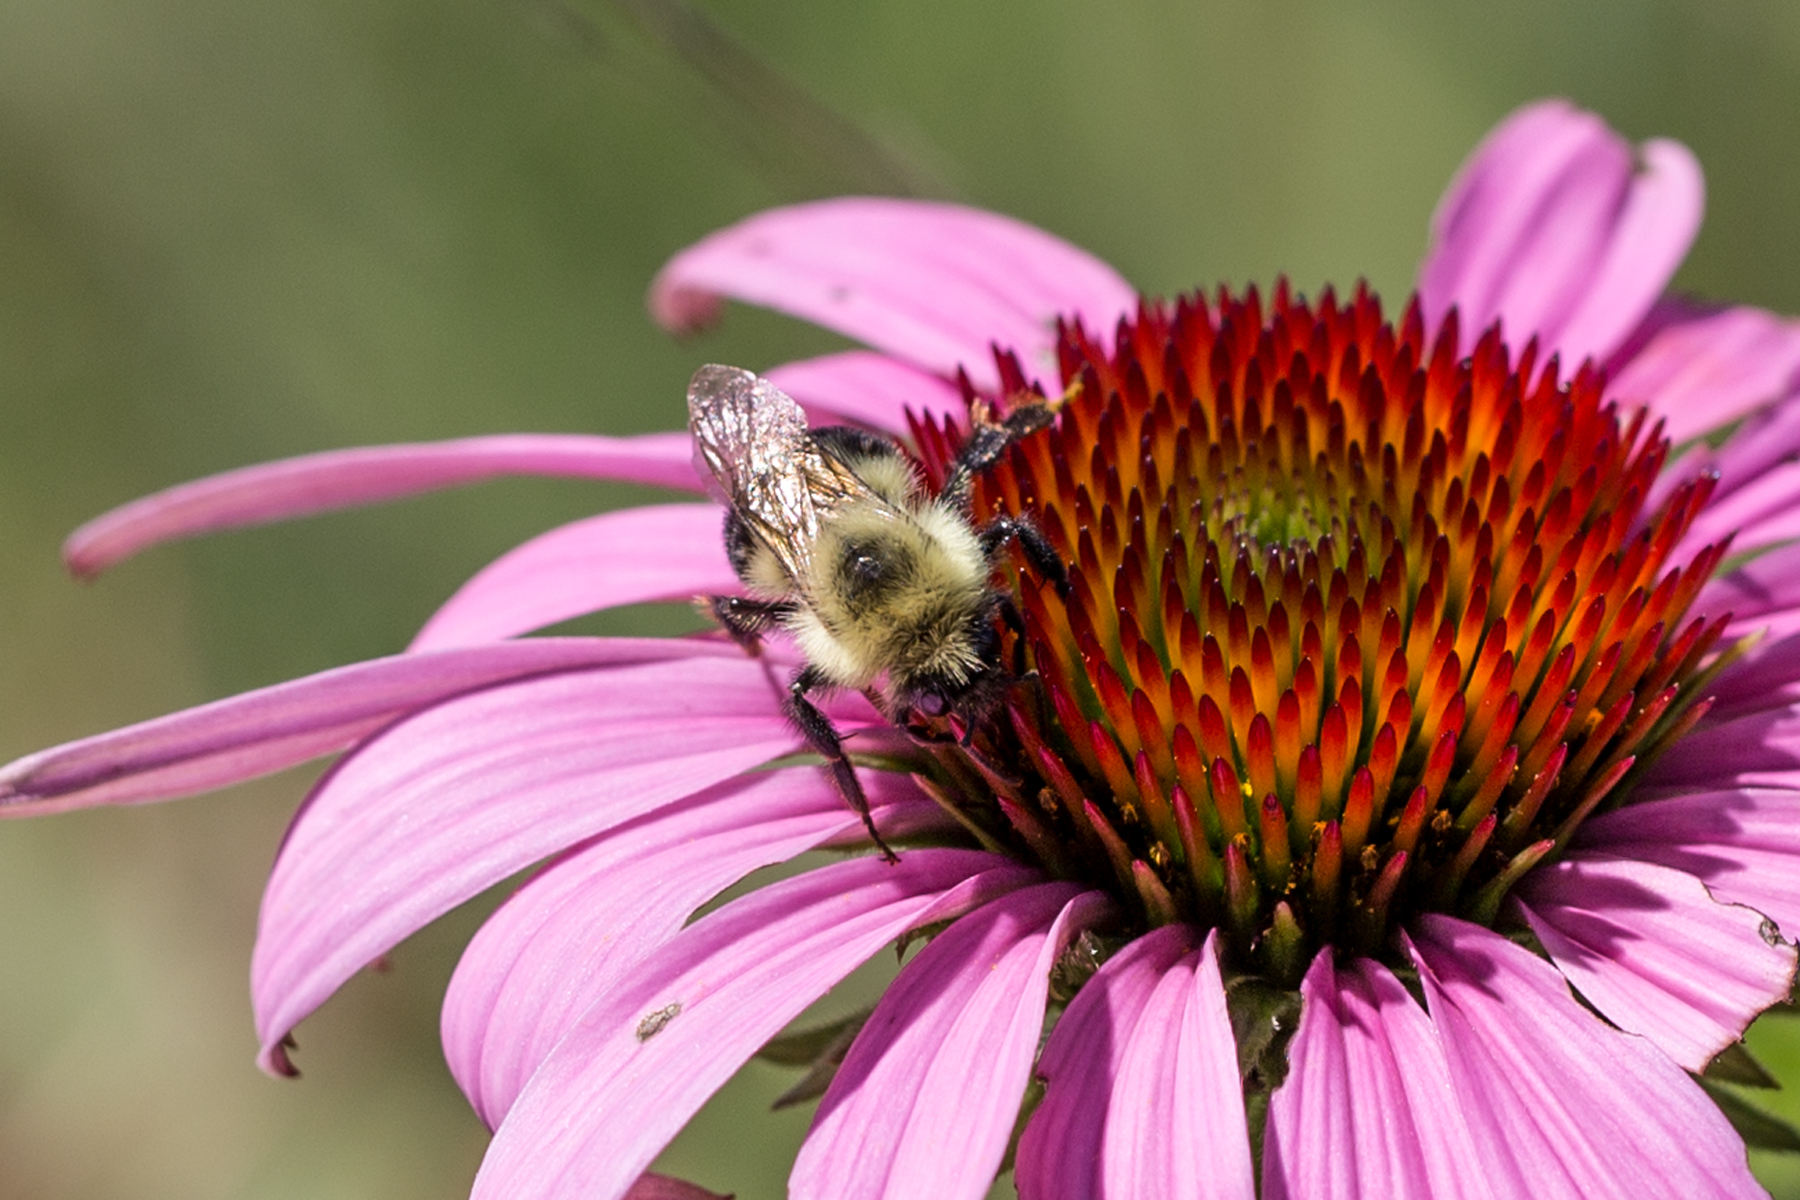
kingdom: Animalia
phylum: Arthropoda
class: Insecta
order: Hymenoptera
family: Apidae
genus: Bombus
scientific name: Bombus bimaculatus
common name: Two-spotted bumble bee
